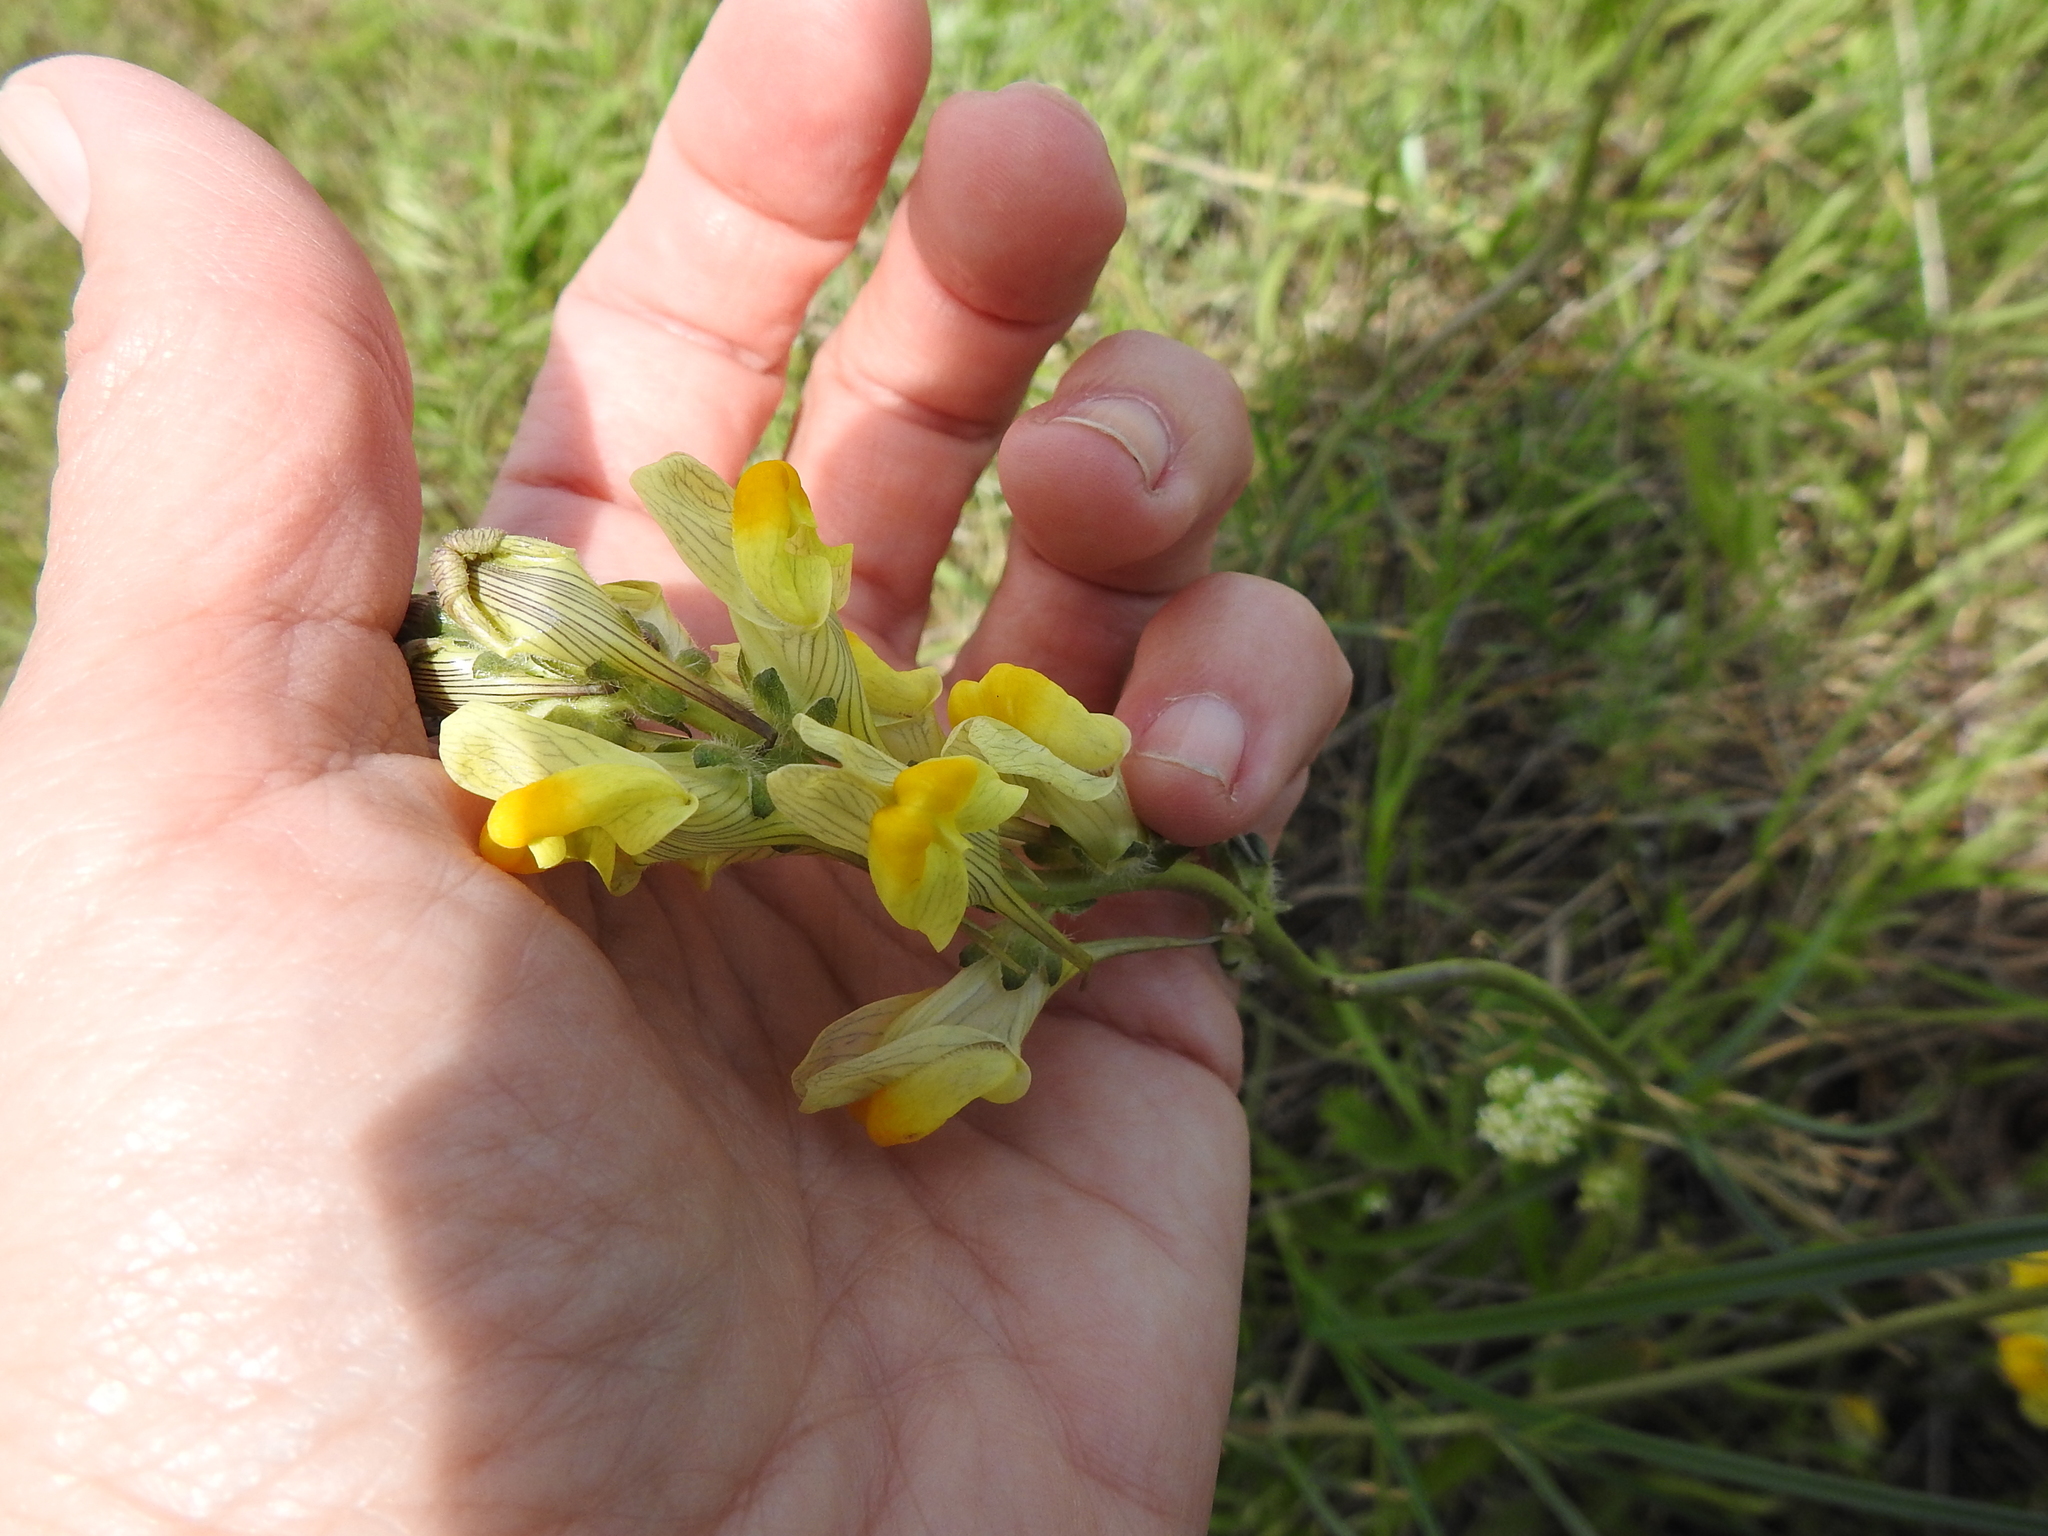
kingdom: Plantae
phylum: Tracheophyta
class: Magnoliopsida
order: Lamiales
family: Plantaginaceae
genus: Linaria
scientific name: Linaria vulgaris
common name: Butter and eggs
